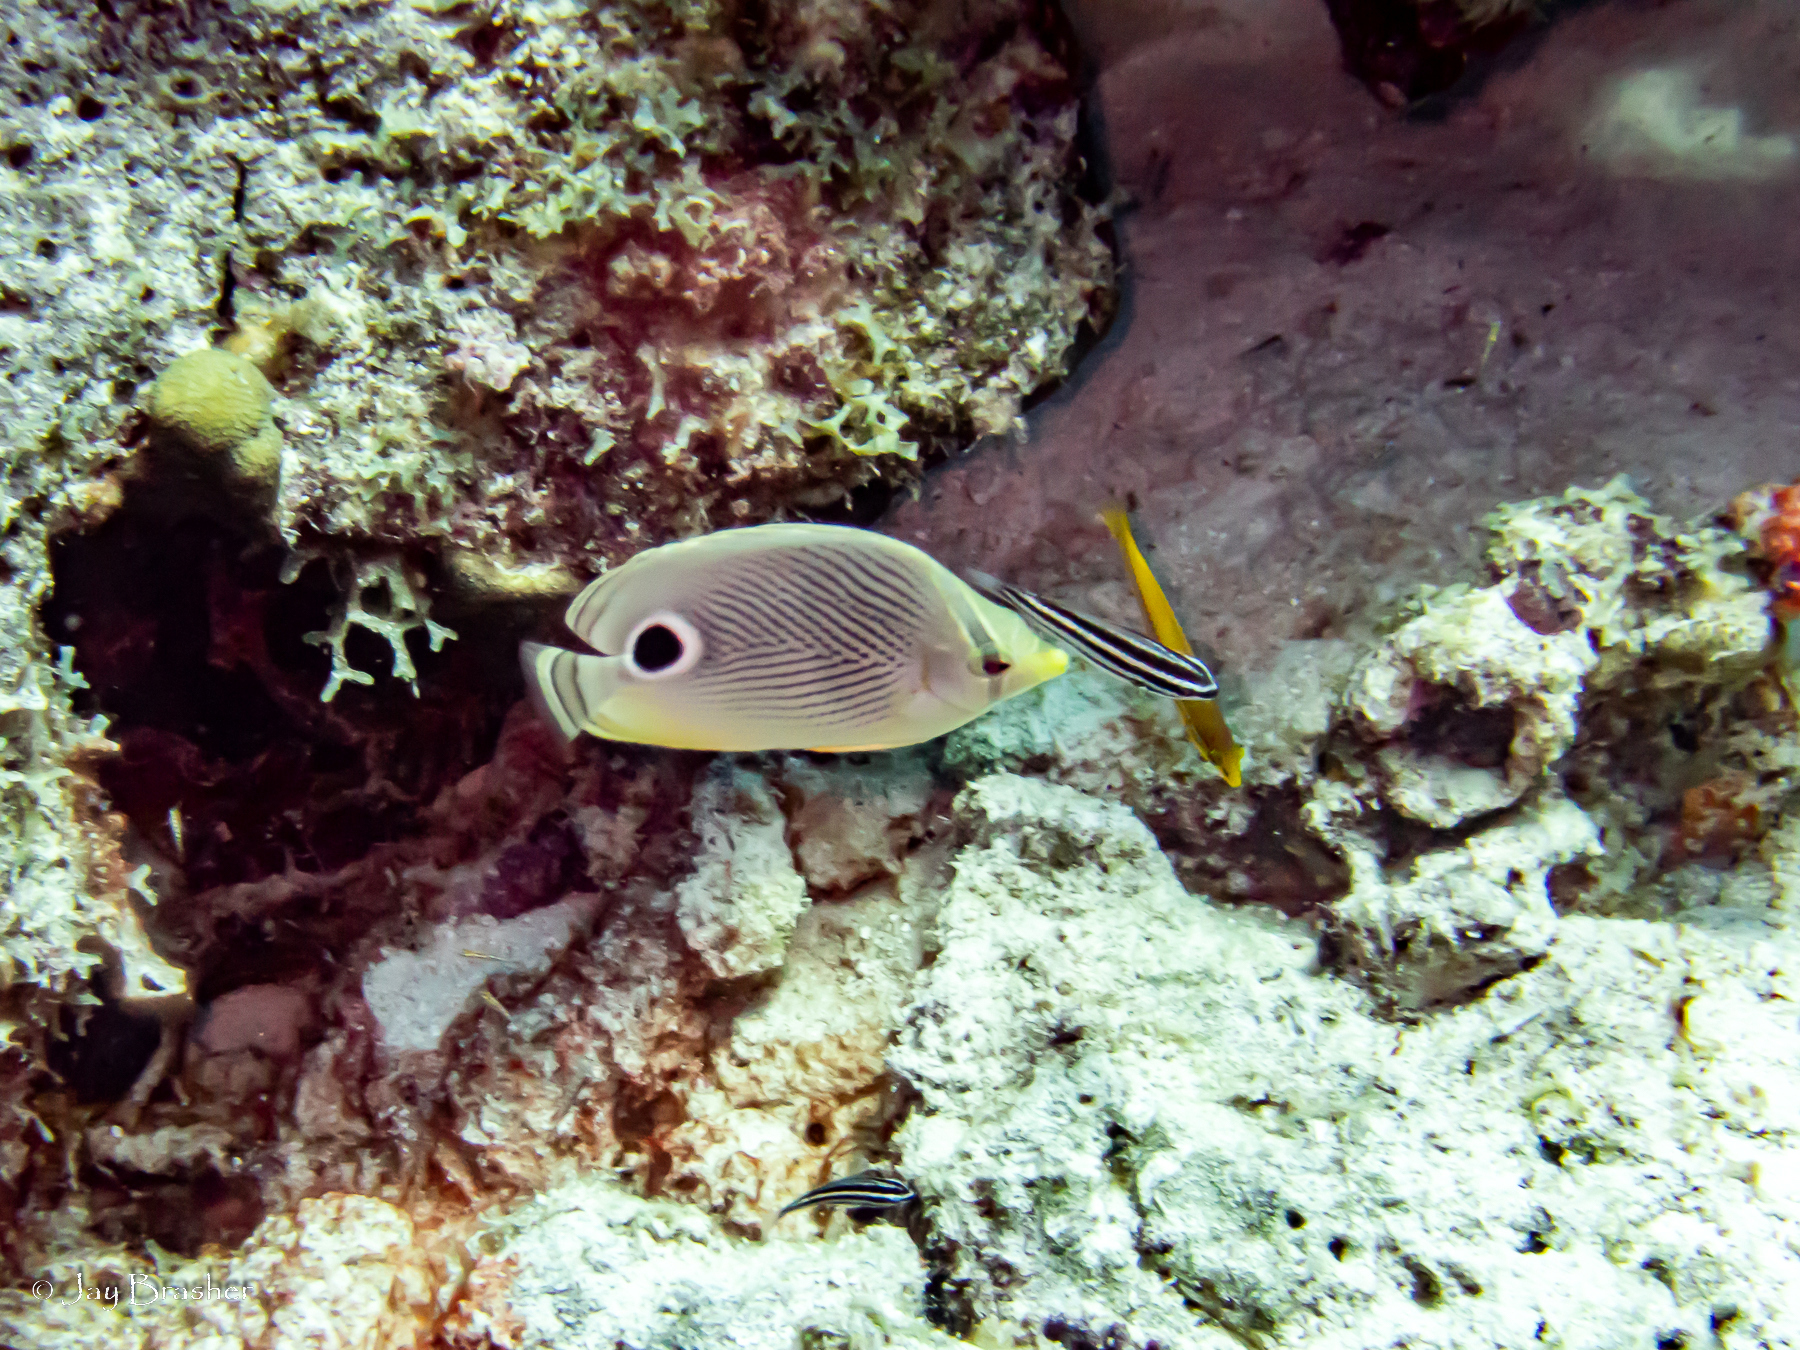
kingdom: Animalia
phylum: Chordata
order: Perciformes
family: Labridae
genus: Halichoeres
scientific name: Halichoeres garnoti
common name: Yellowhead wrasse
